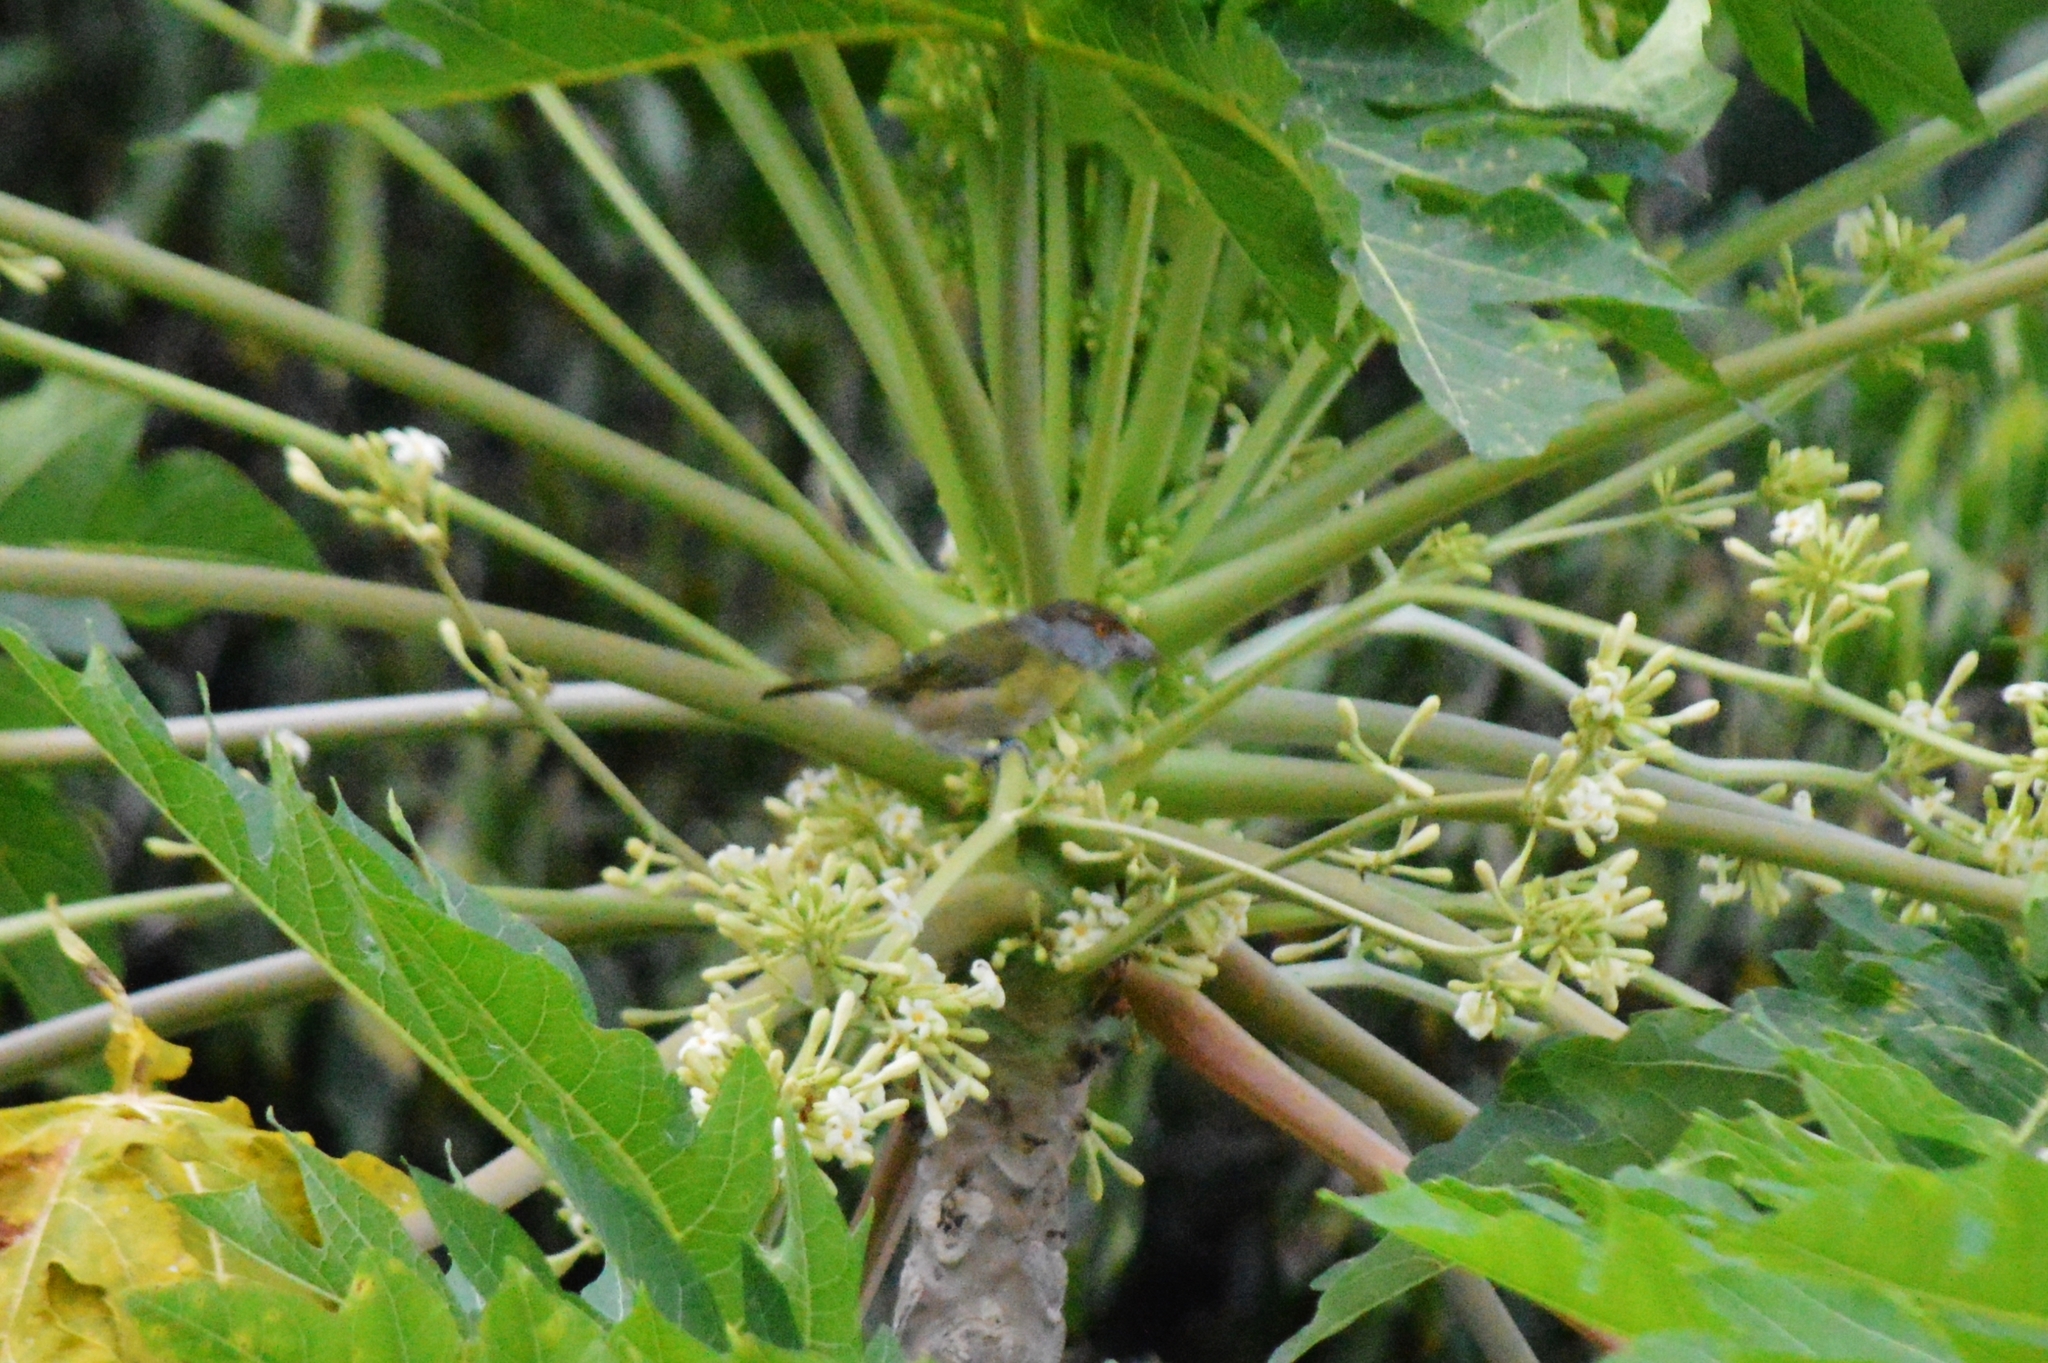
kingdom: Animalia
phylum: Chordata
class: Aves
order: Passeriformes
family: Vireonidae
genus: Cyclarhis
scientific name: Cyclarhis gujanensis
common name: Rufous-browed peppershrike
